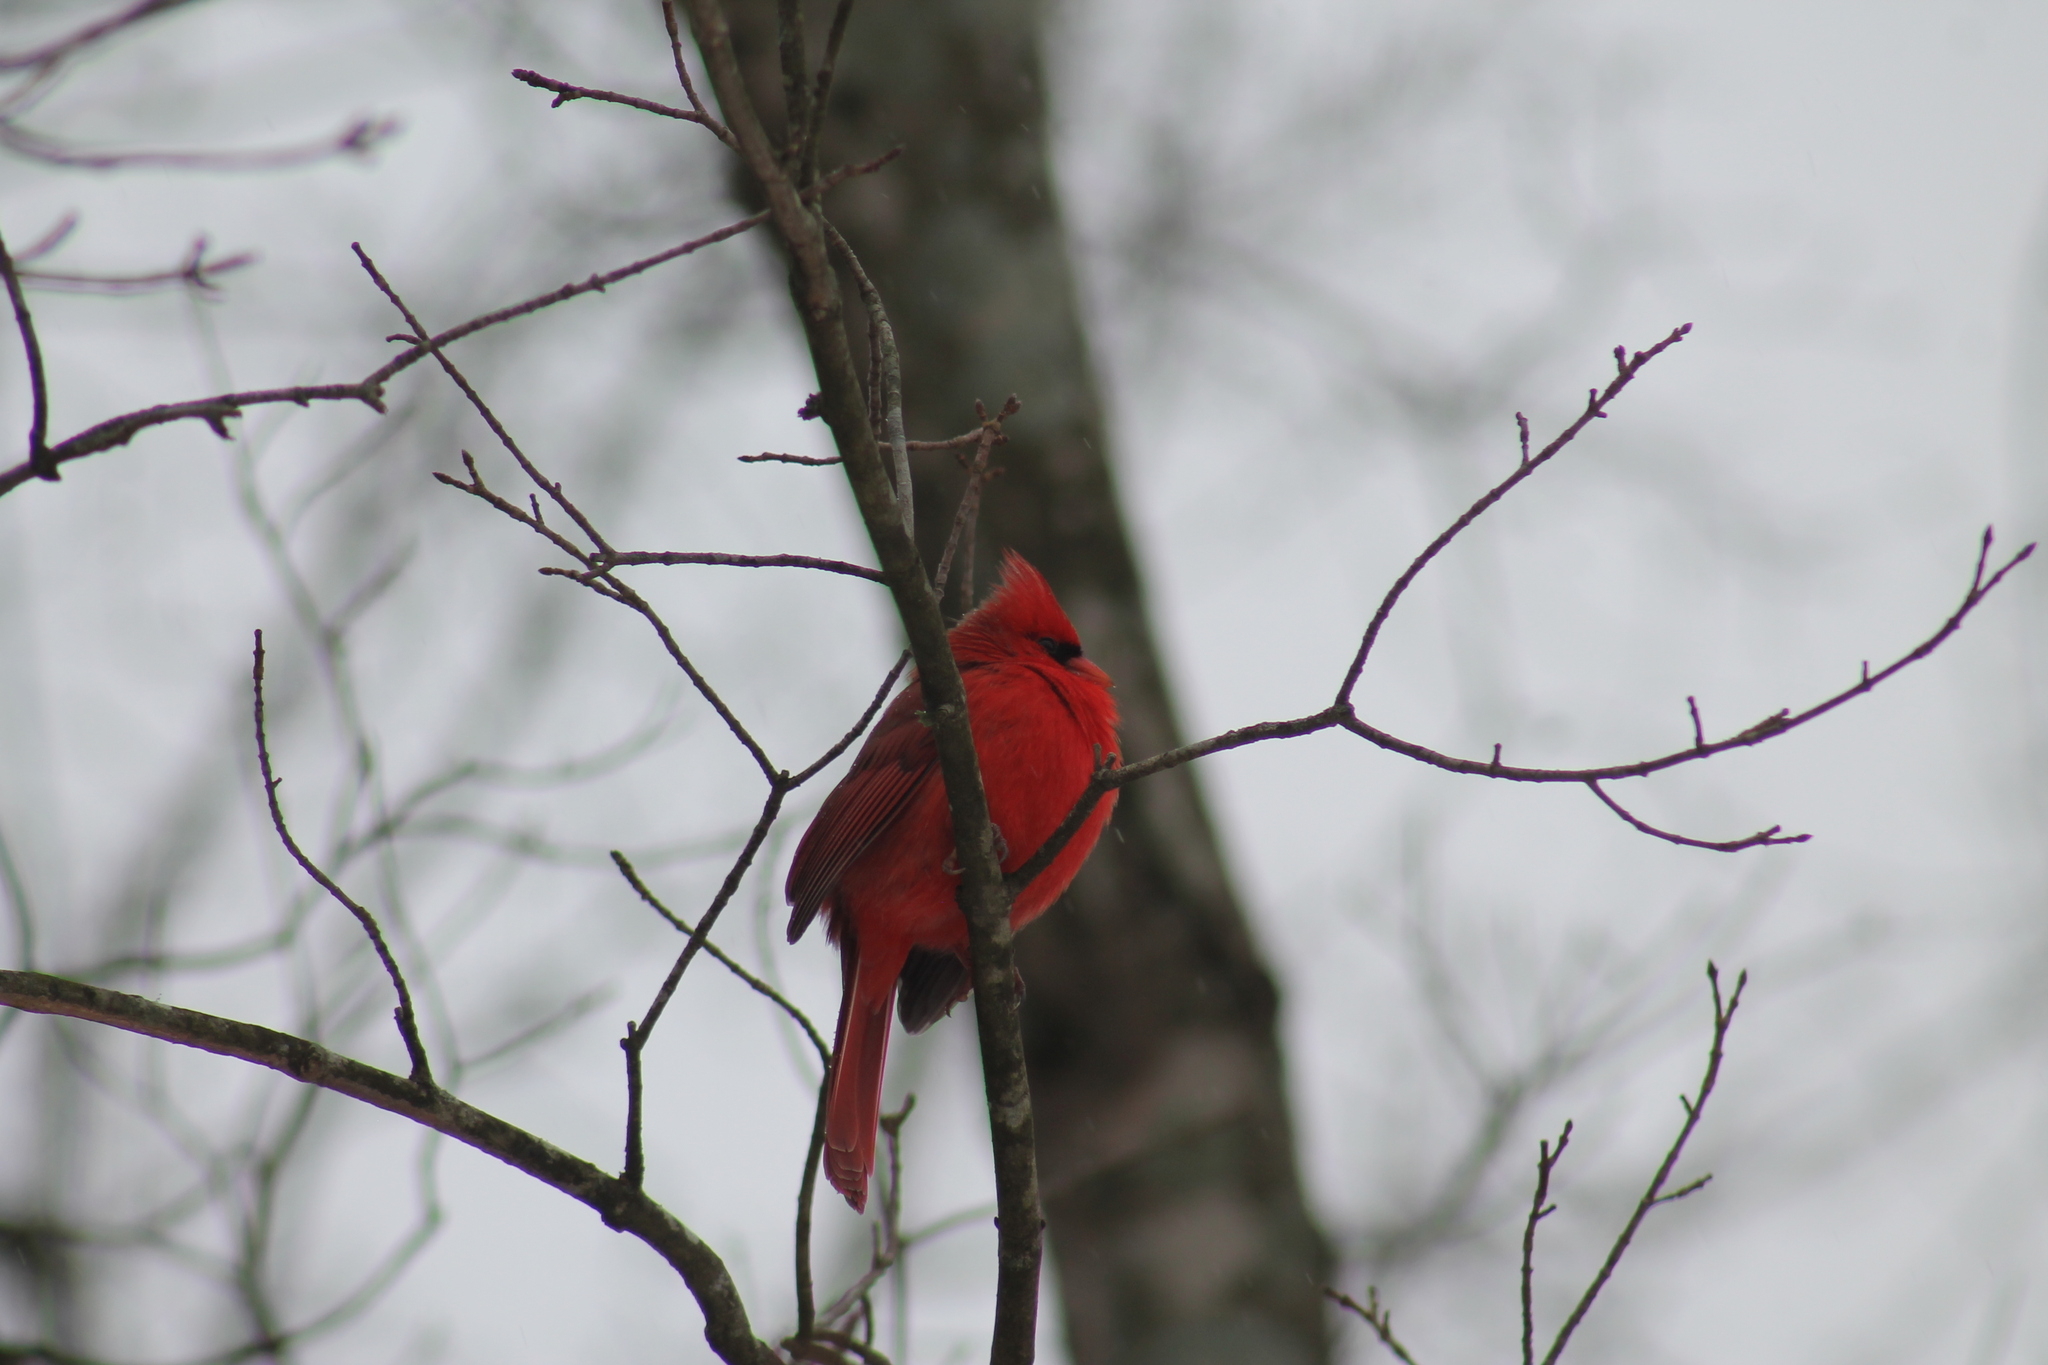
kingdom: Animalia
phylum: Chordata
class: Aves
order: Passeriformes
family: Cardinalidae
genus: Cardinalis
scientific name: Cardinalis cardinalis
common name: Northern cardinal
